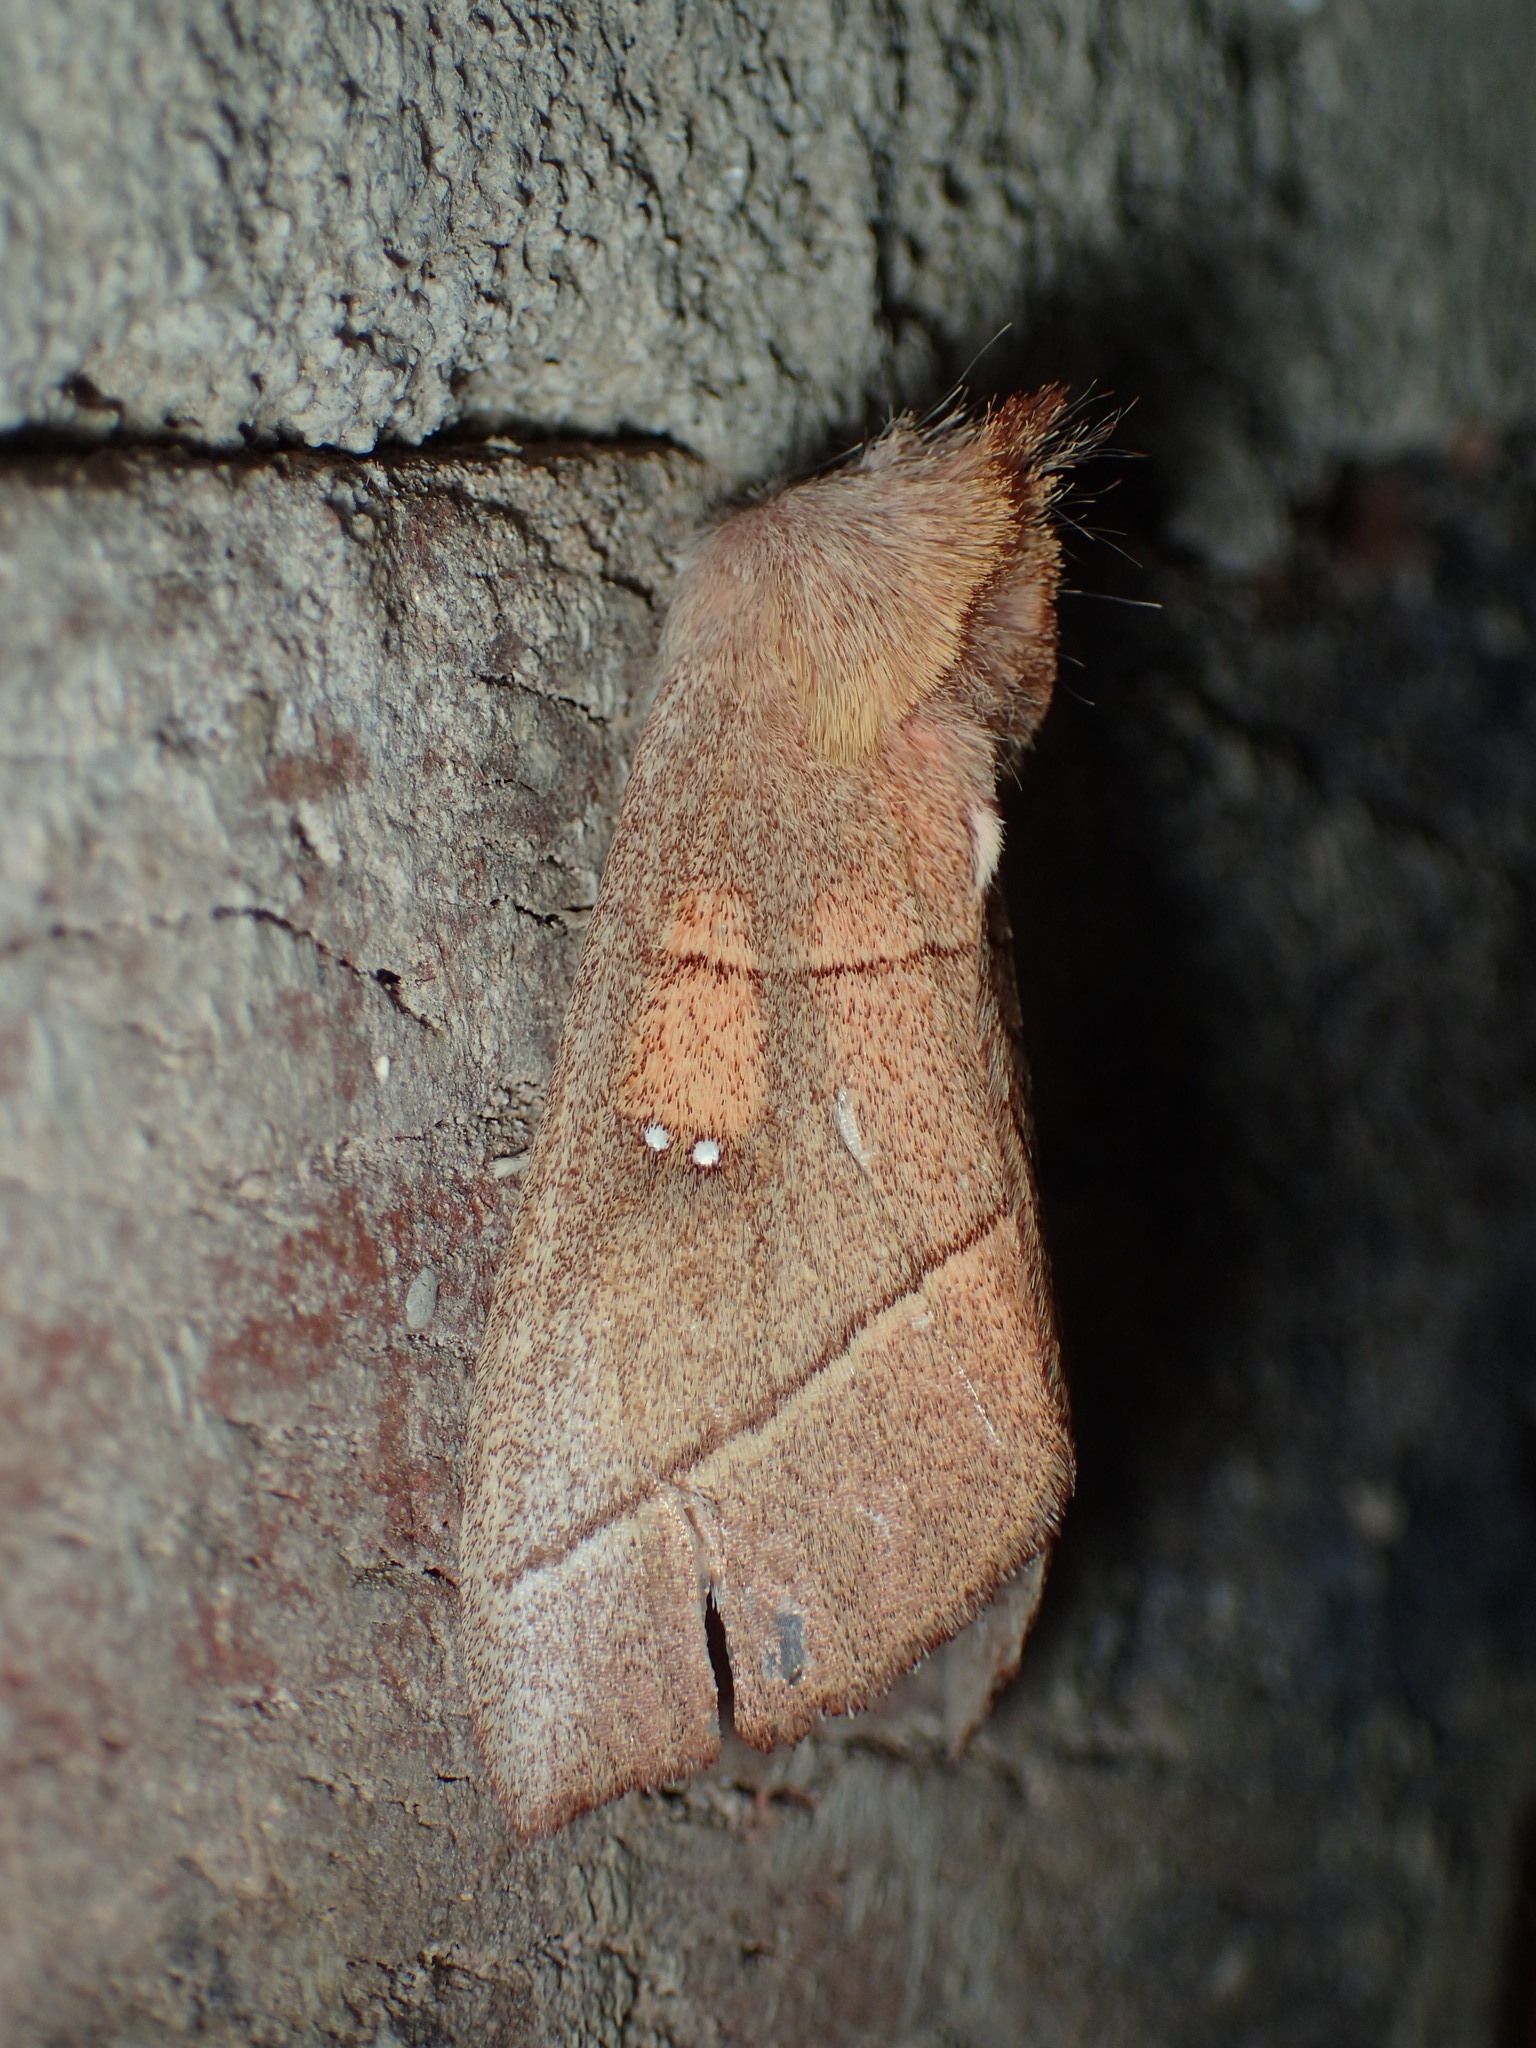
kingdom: Animalia
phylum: Arthropoda
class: Insecta
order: Lepidoptera
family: Notodontidae
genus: Nadata
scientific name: Nadata gibbosa
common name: White-dotted prominent
